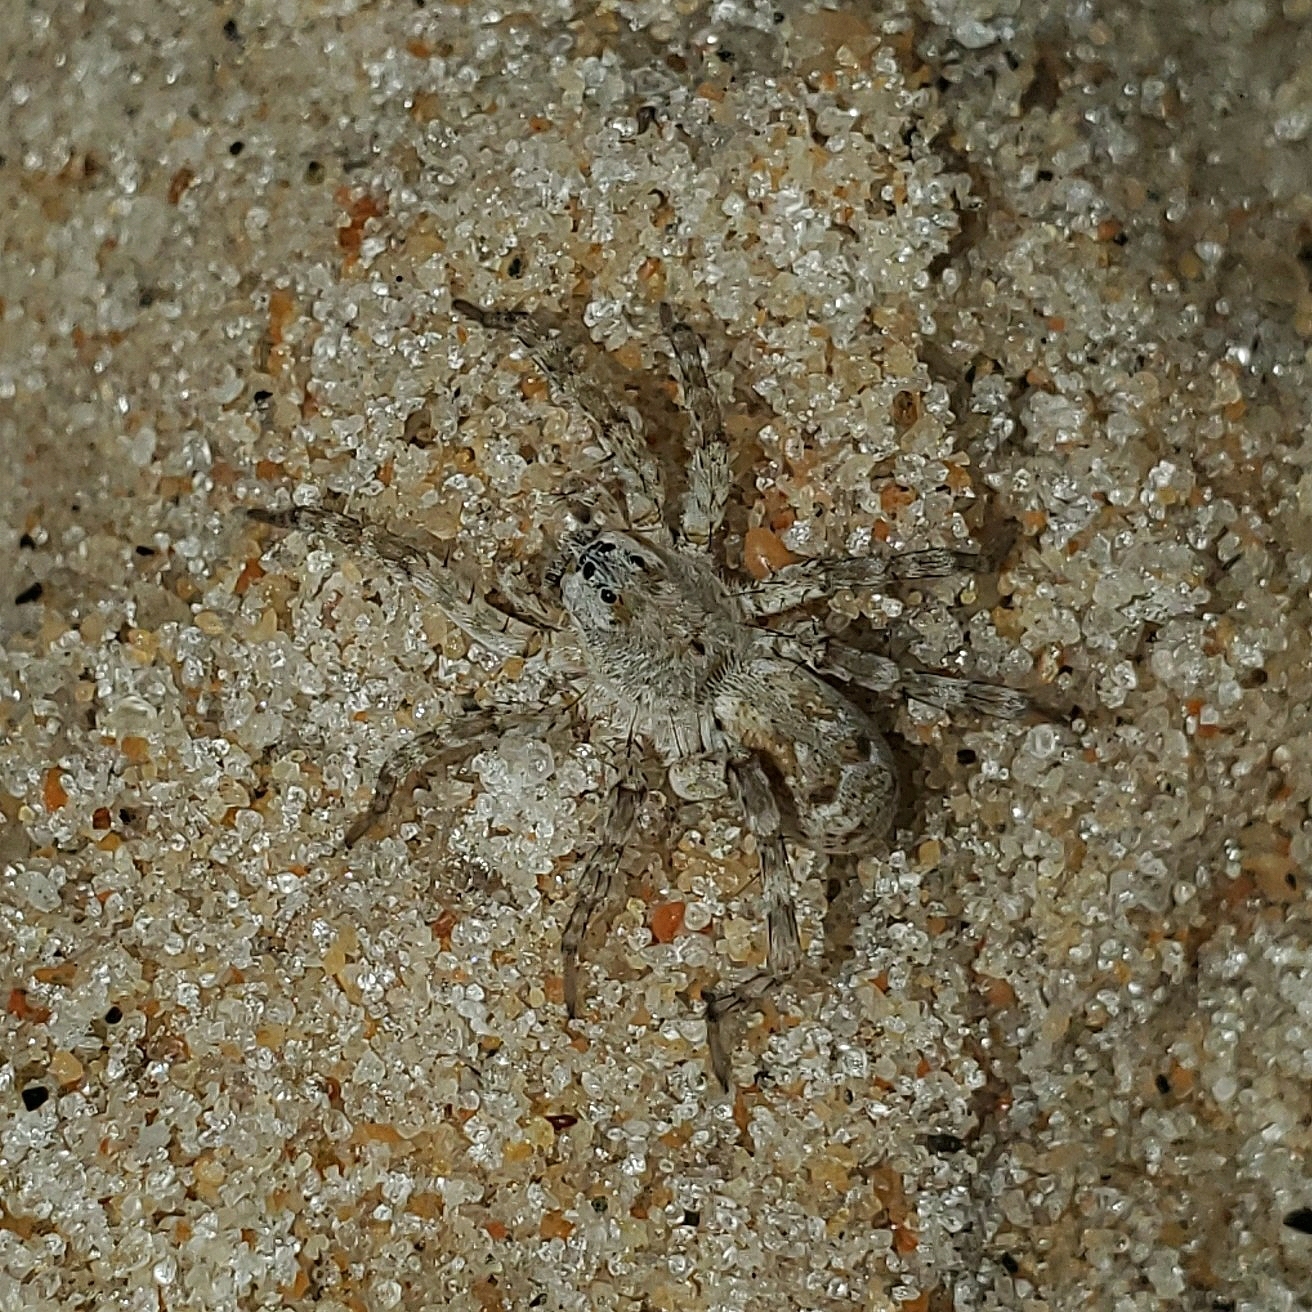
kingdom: Animalia
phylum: Arthropoda
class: Arachnida
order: Araneae
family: Lycosidae
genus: Arctosa
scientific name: Arctosa littoralis
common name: Wolf spiders
